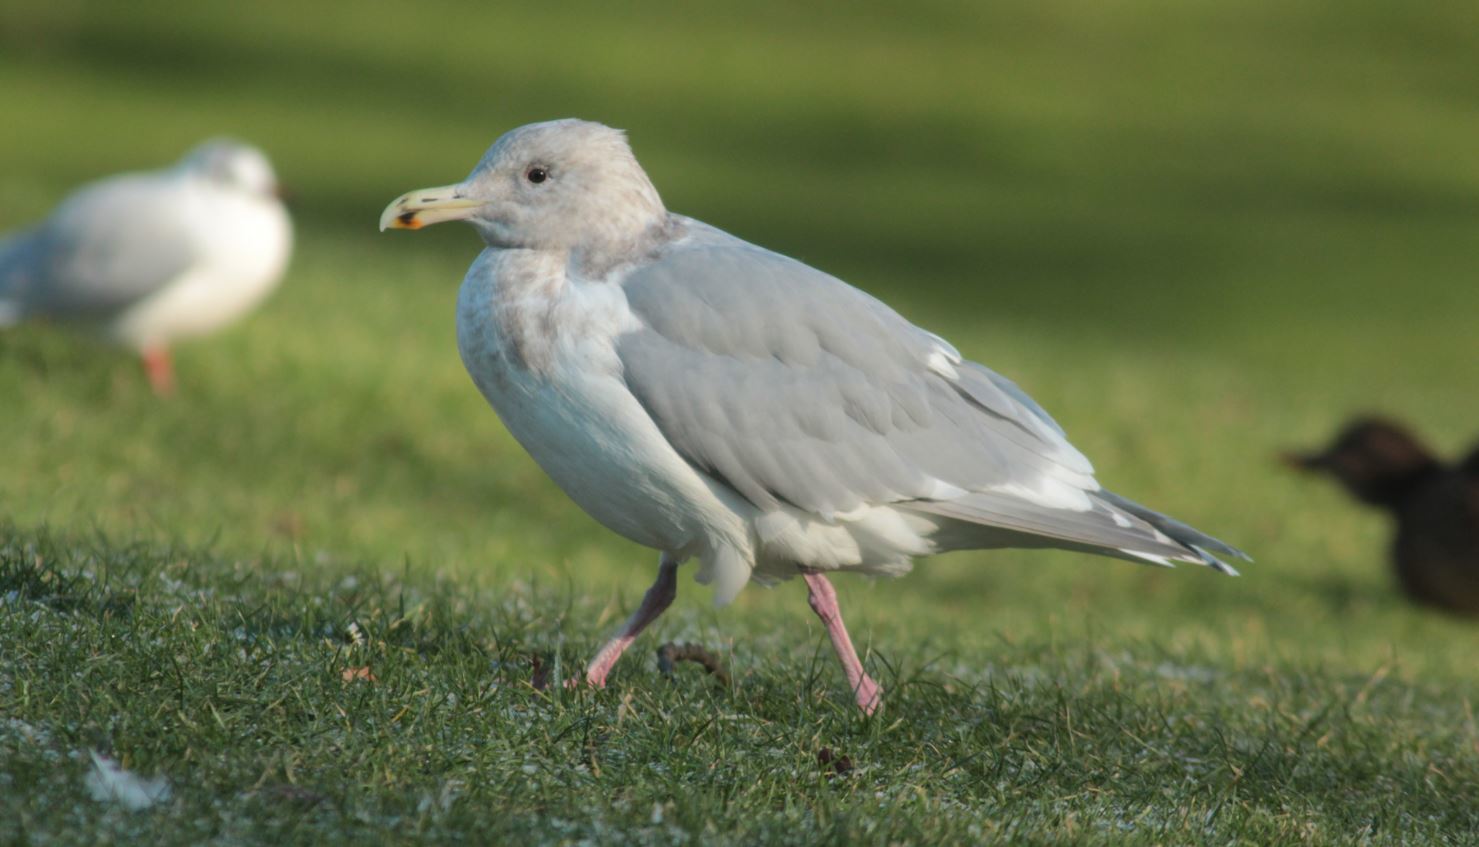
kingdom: Animalia
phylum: Chordata
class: Aves
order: Charadriiformes
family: Laridae
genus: Larus
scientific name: Larus glaucescens
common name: Glaucous-winged gull
